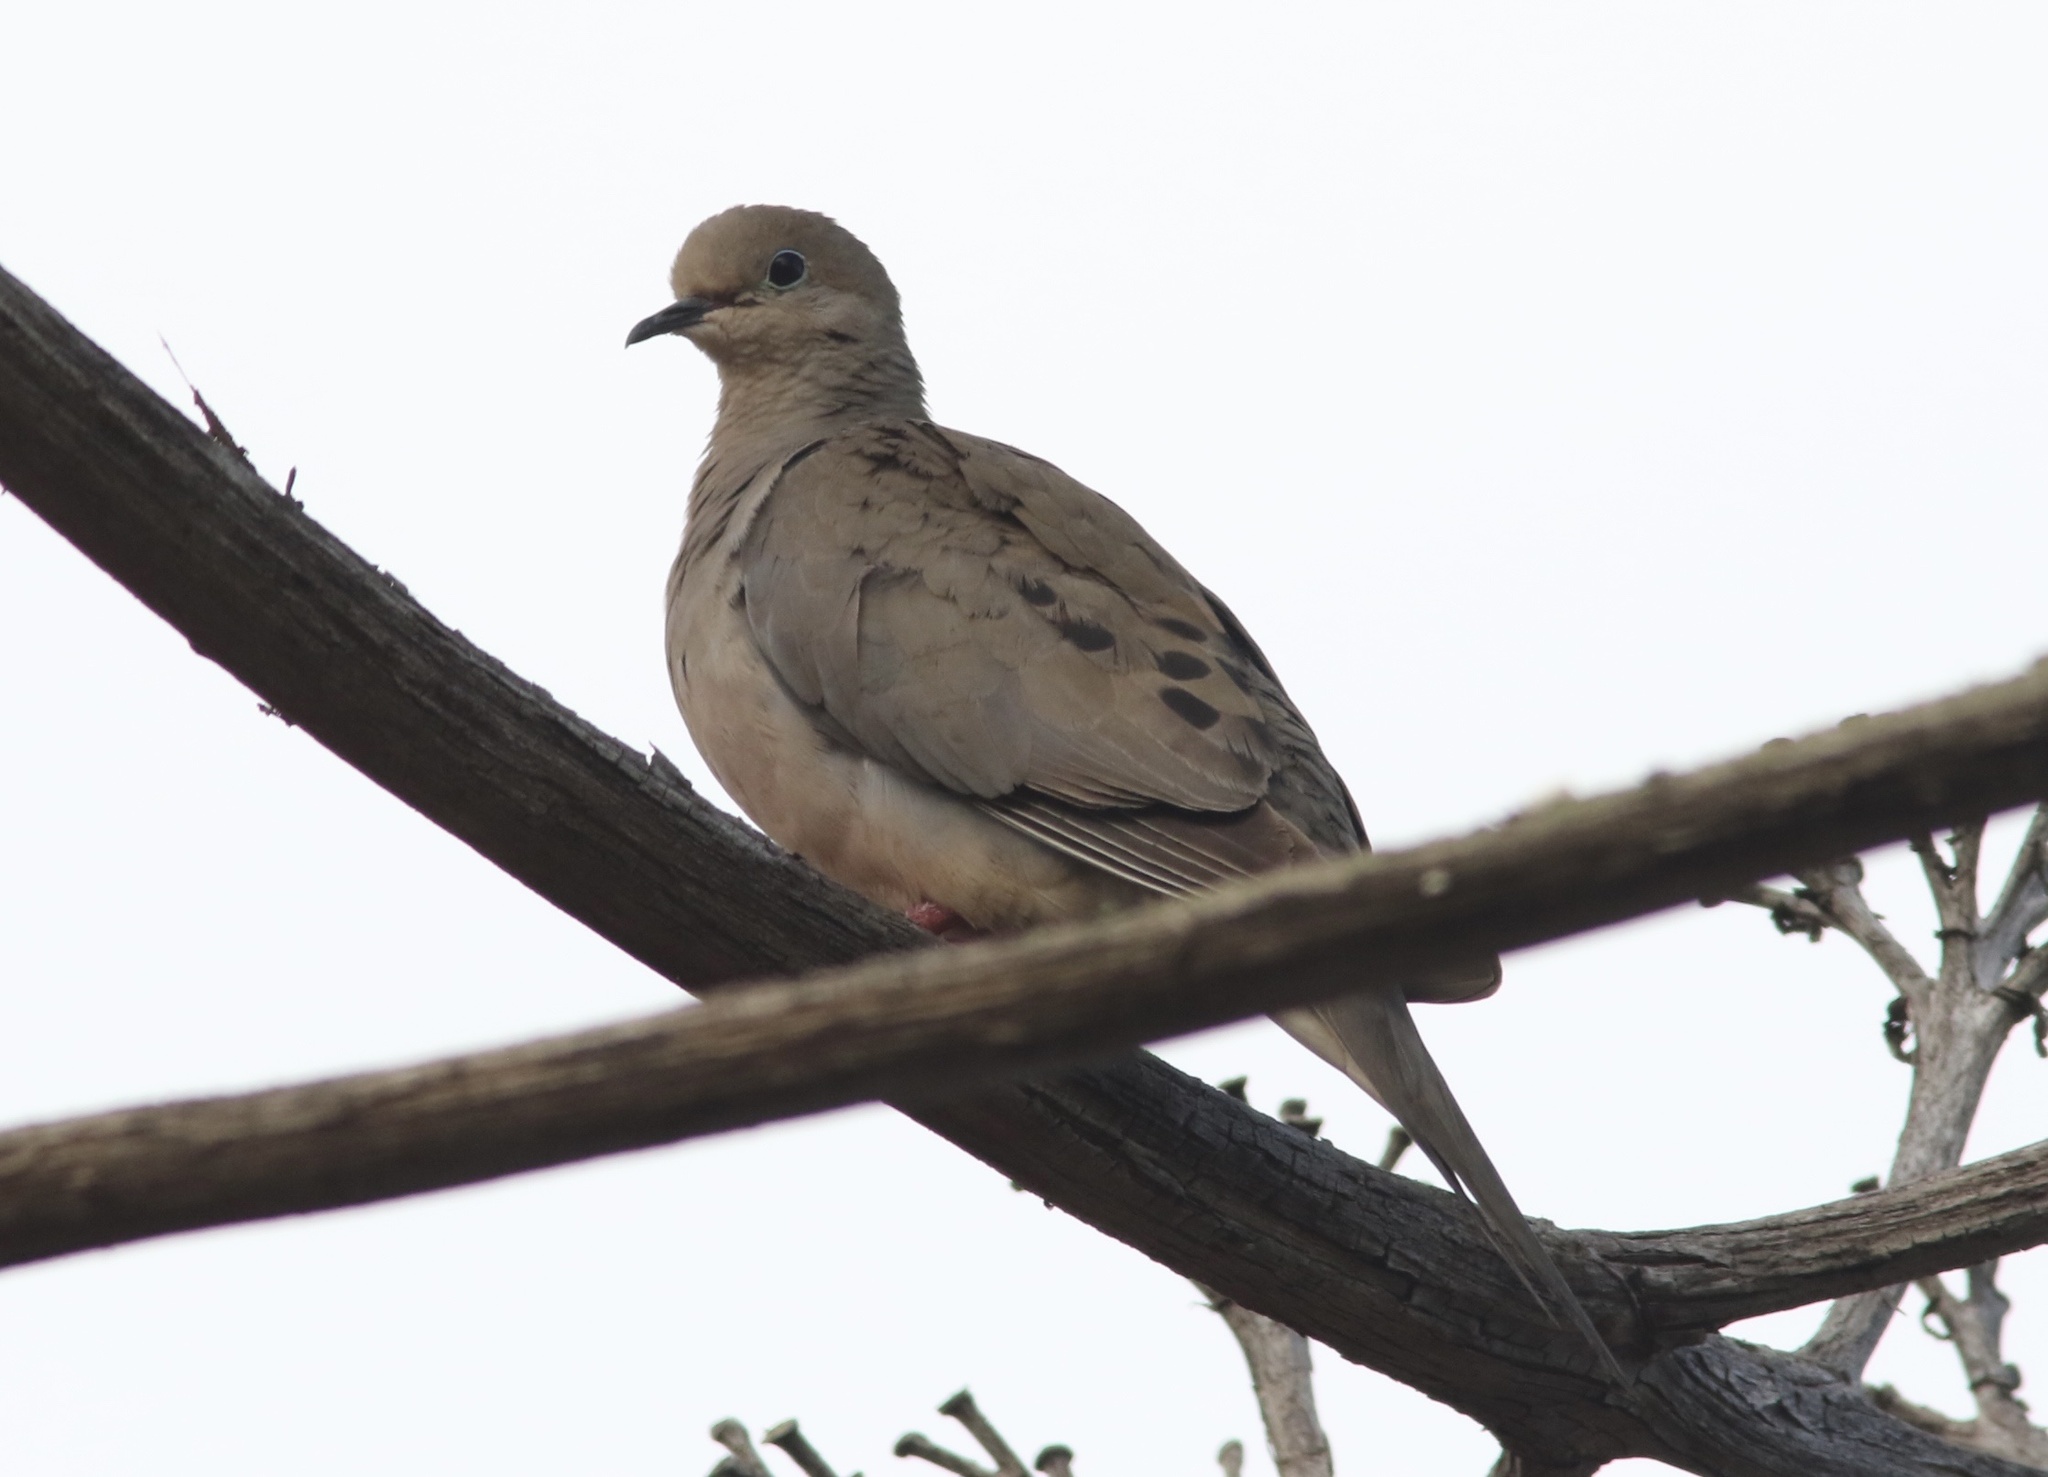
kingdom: Animalia
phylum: Chordata
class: Aves
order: Columbiformes
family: Columbidae
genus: Zenaida
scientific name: Zenaida macroura
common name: Mourning dove
